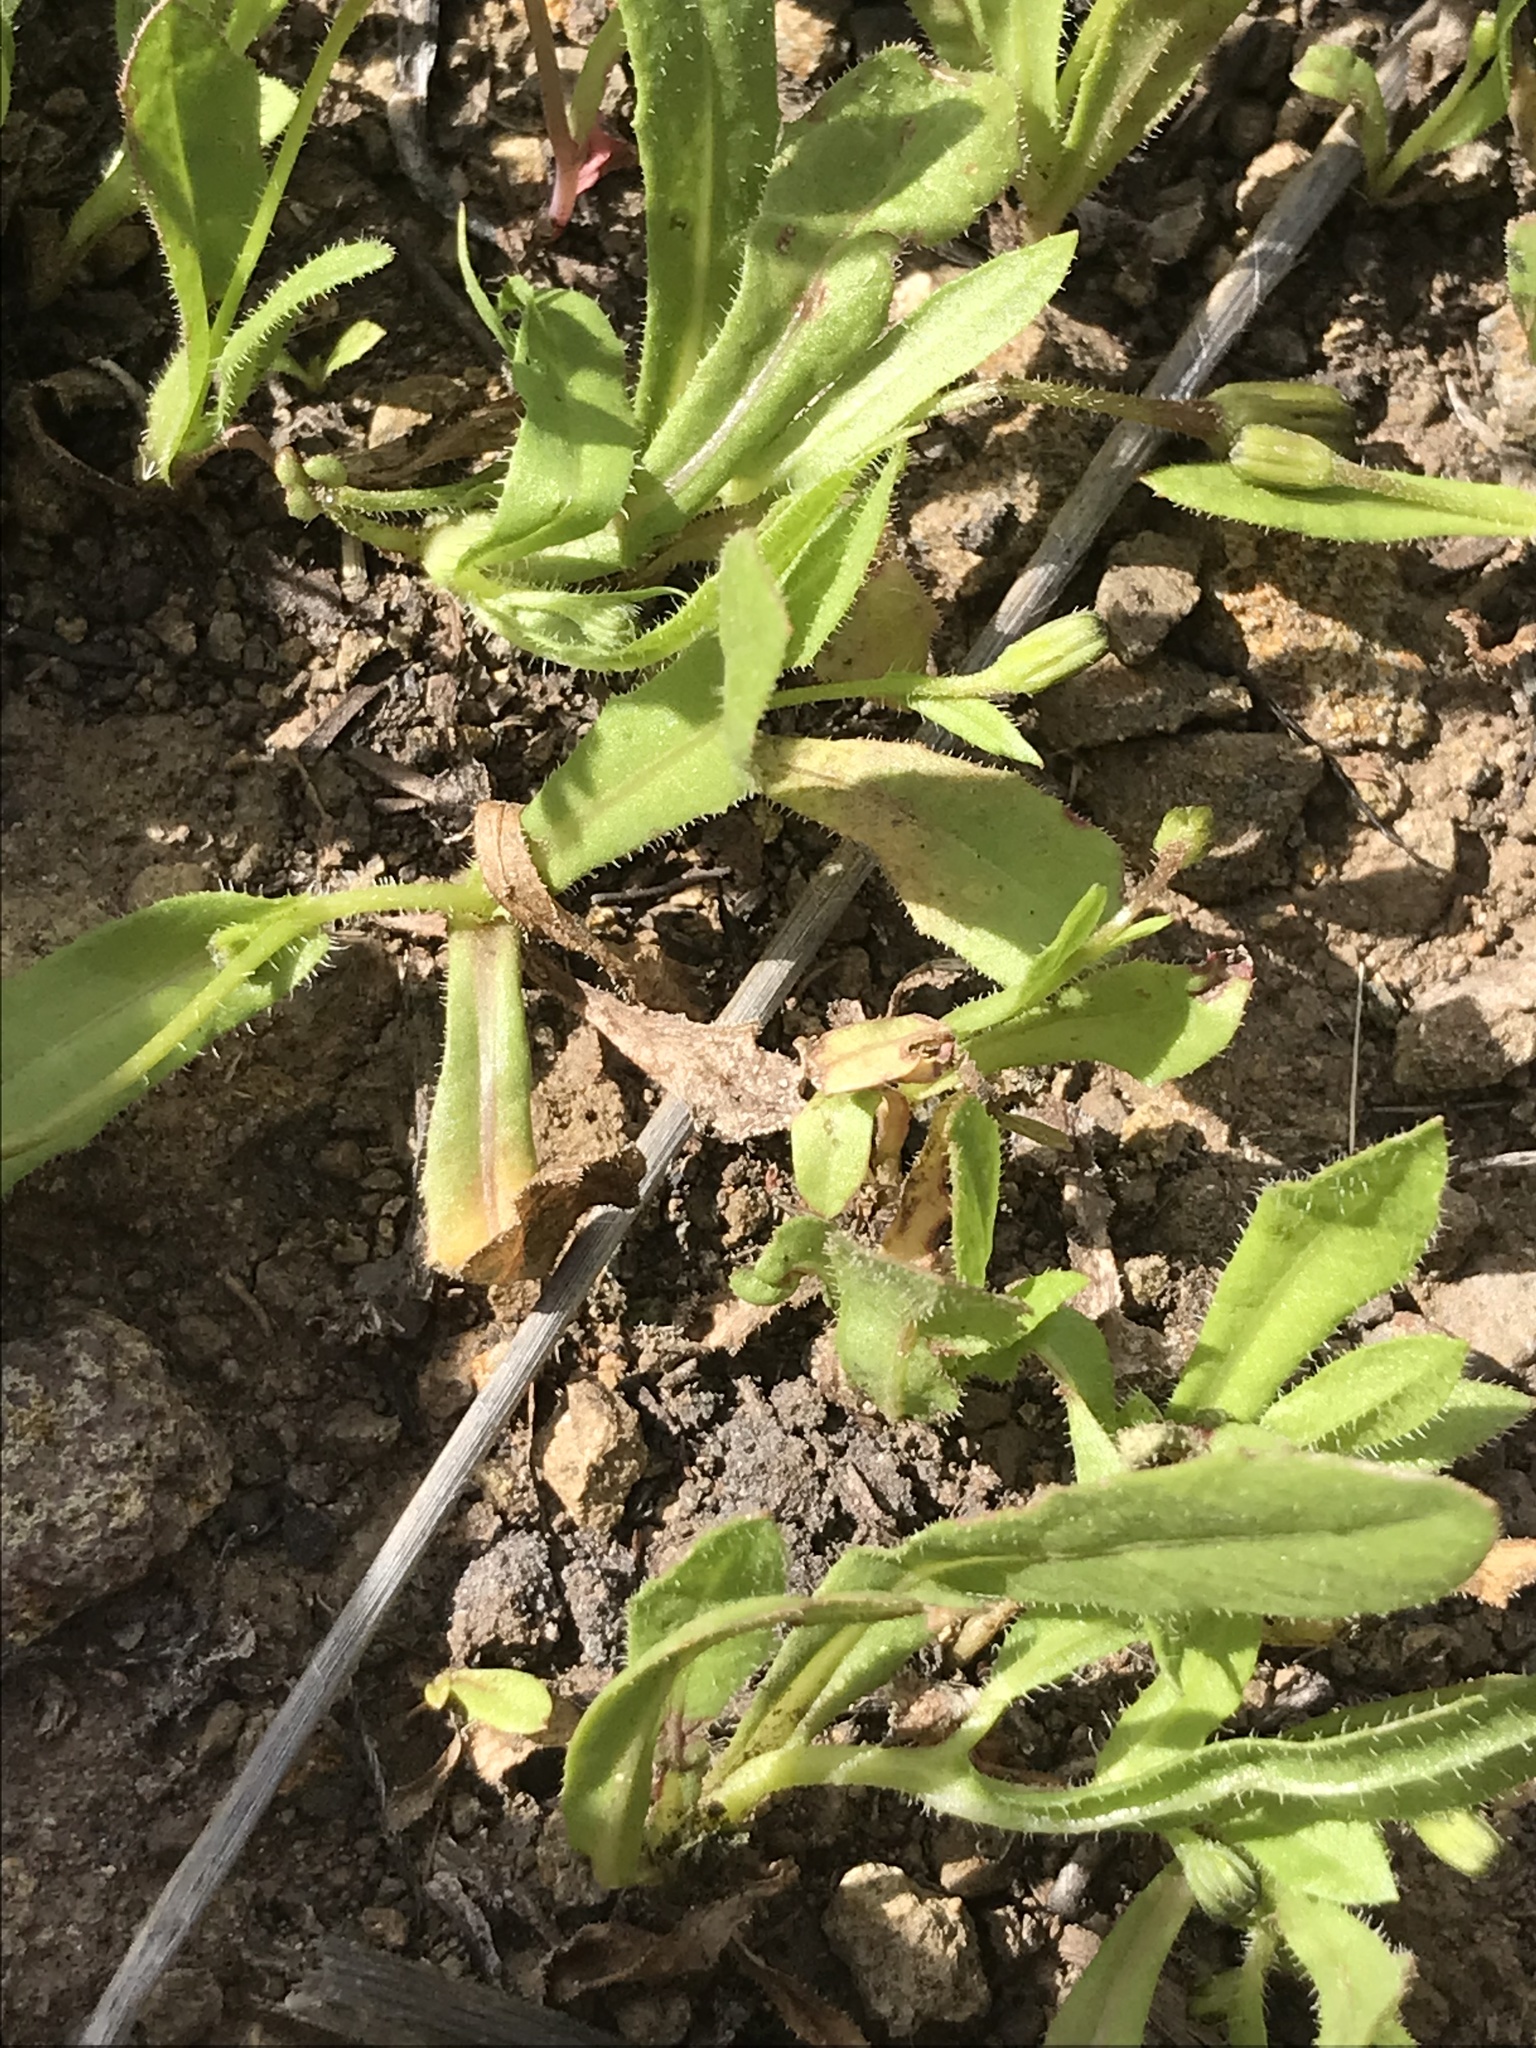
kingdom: Plantae
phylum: Tracheophyta
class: Magnoliopsida
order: Asterales
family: Asteraceae
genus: Hedypnois
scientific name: Hedypnois rhagadioloides
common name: Cretan weed
